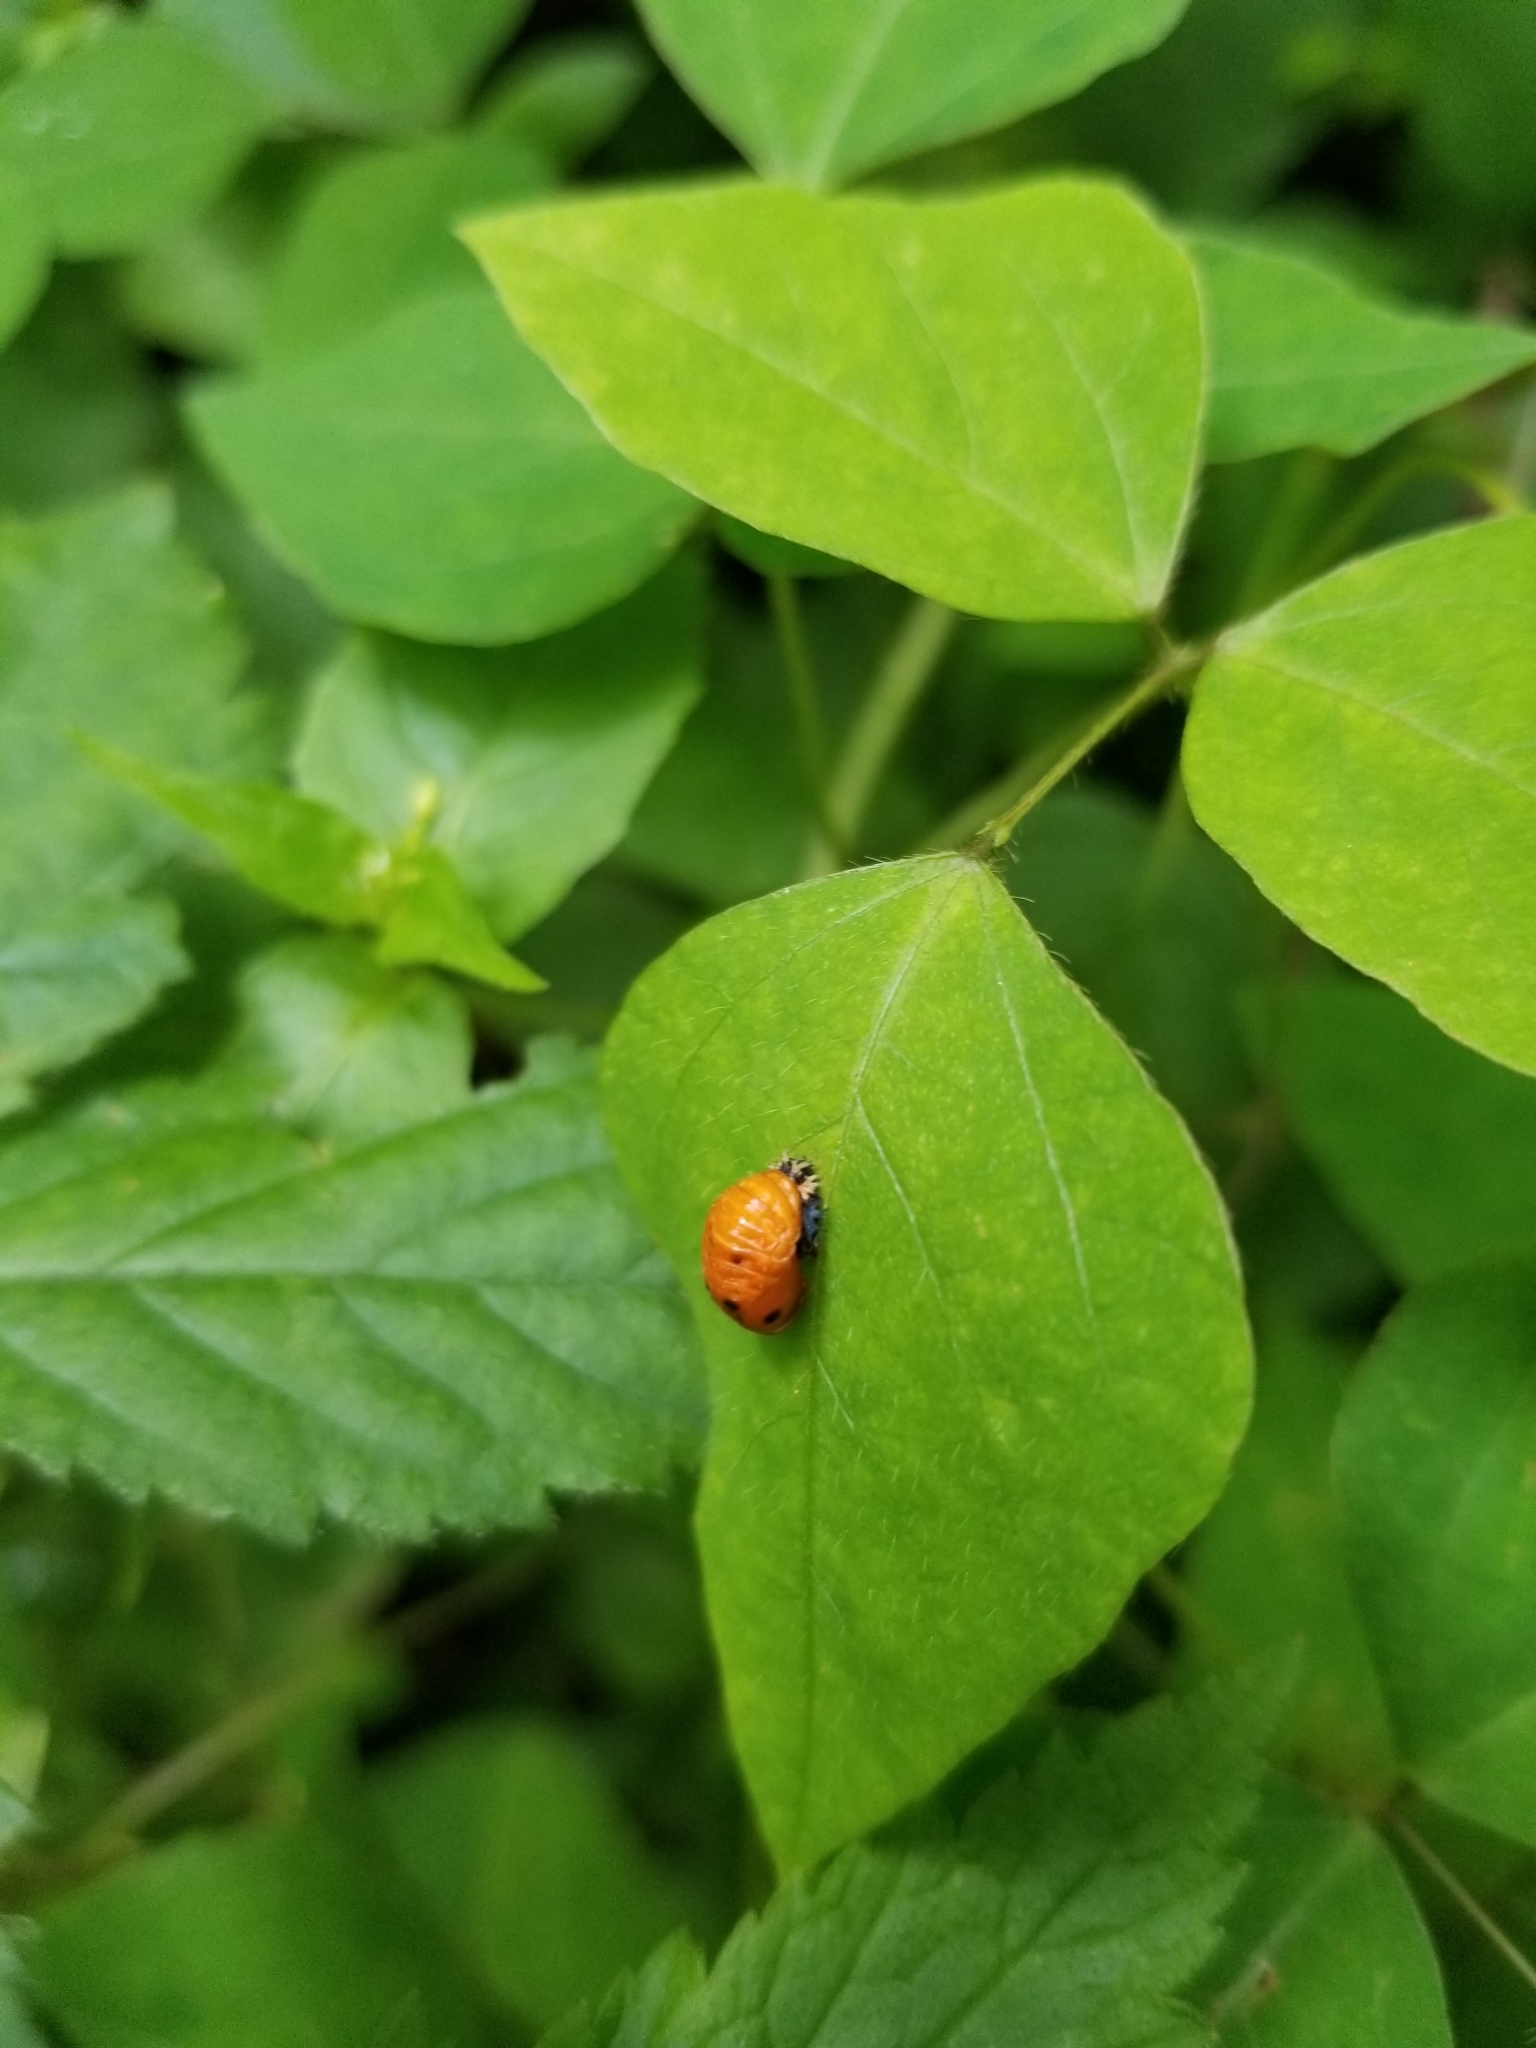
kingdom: Animalia
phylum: Arthropoda
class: Insecta
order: Coleoptera
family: Coccinellidae
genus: Harmonia
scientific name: Harmonia axyridis
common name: Harlequin ladybird
